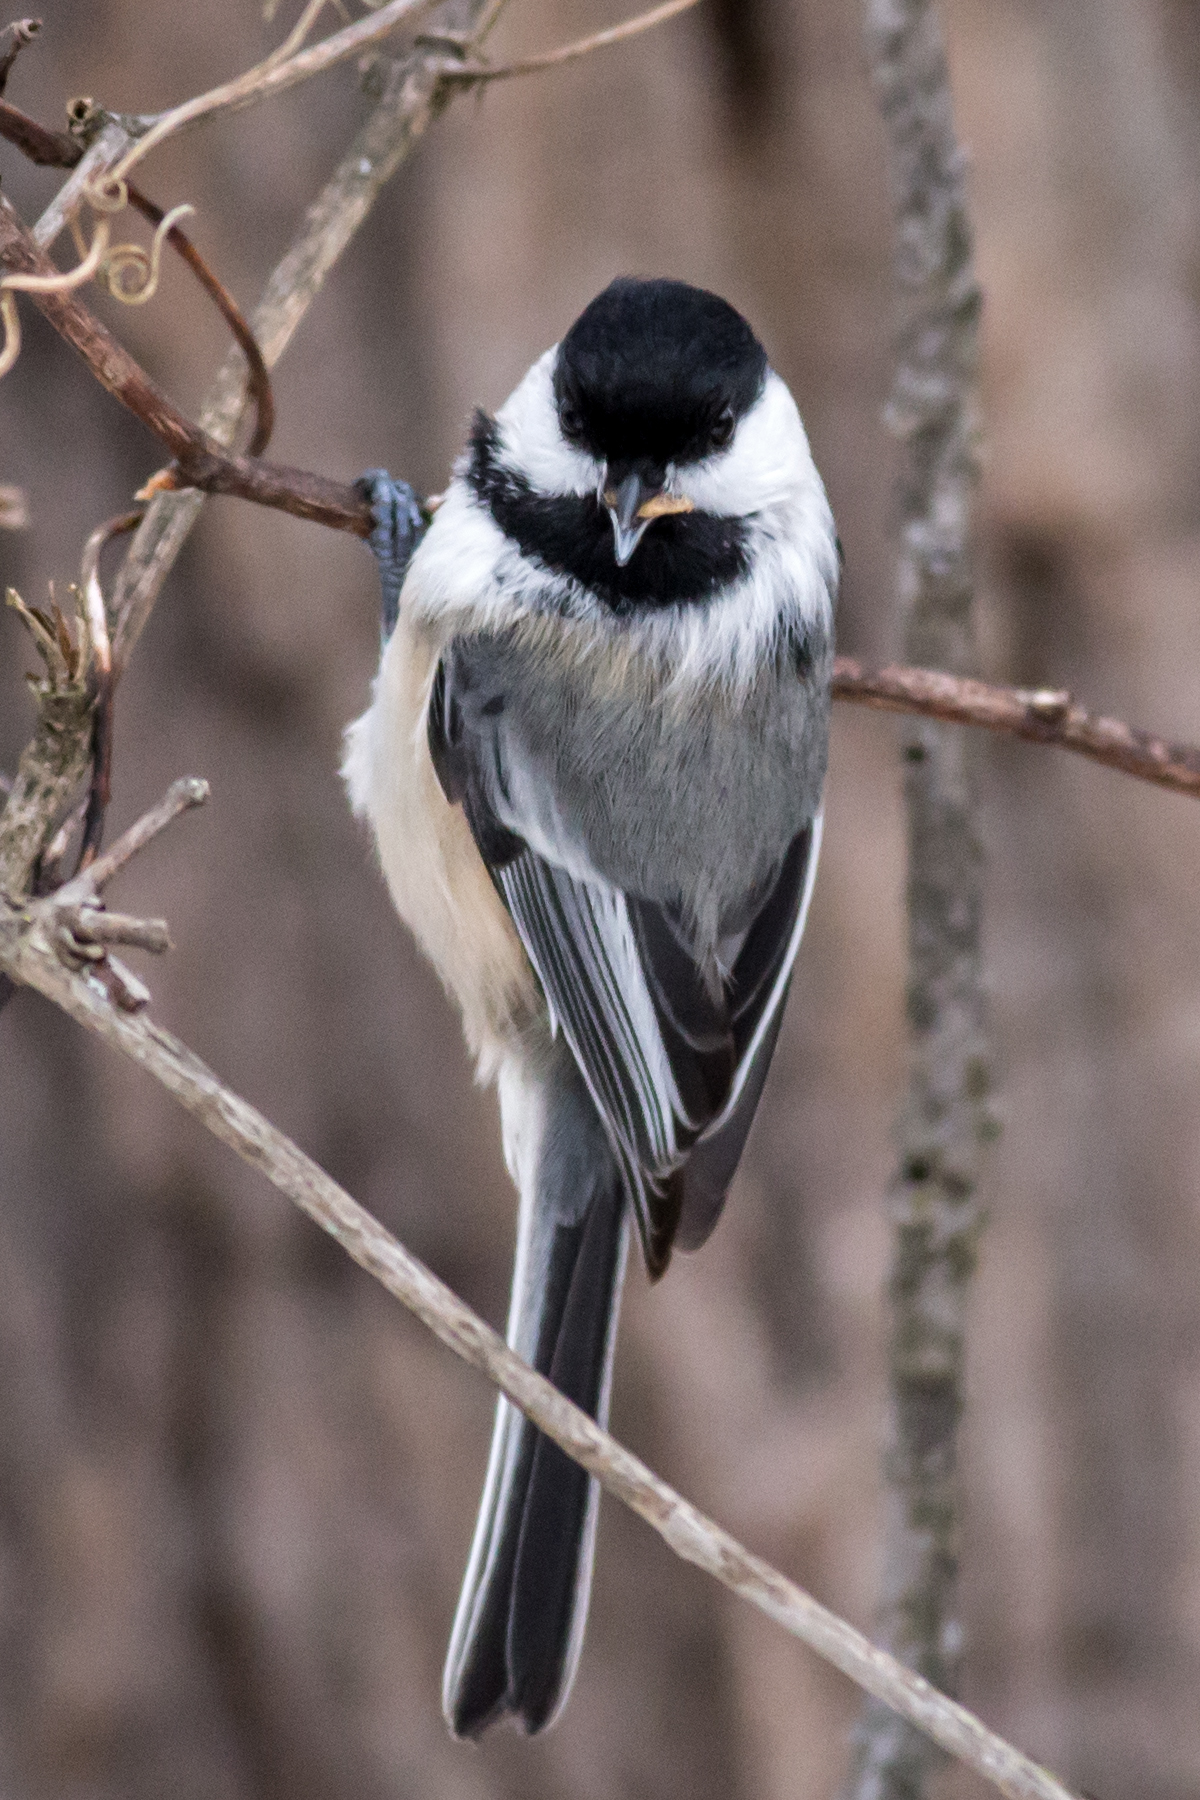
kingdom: Animalia
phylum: Chordata
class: Aves
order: Passeriformes
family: Paridae
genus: Poecile
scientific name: Poecile atricapillus
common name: Black-capped chickadee
